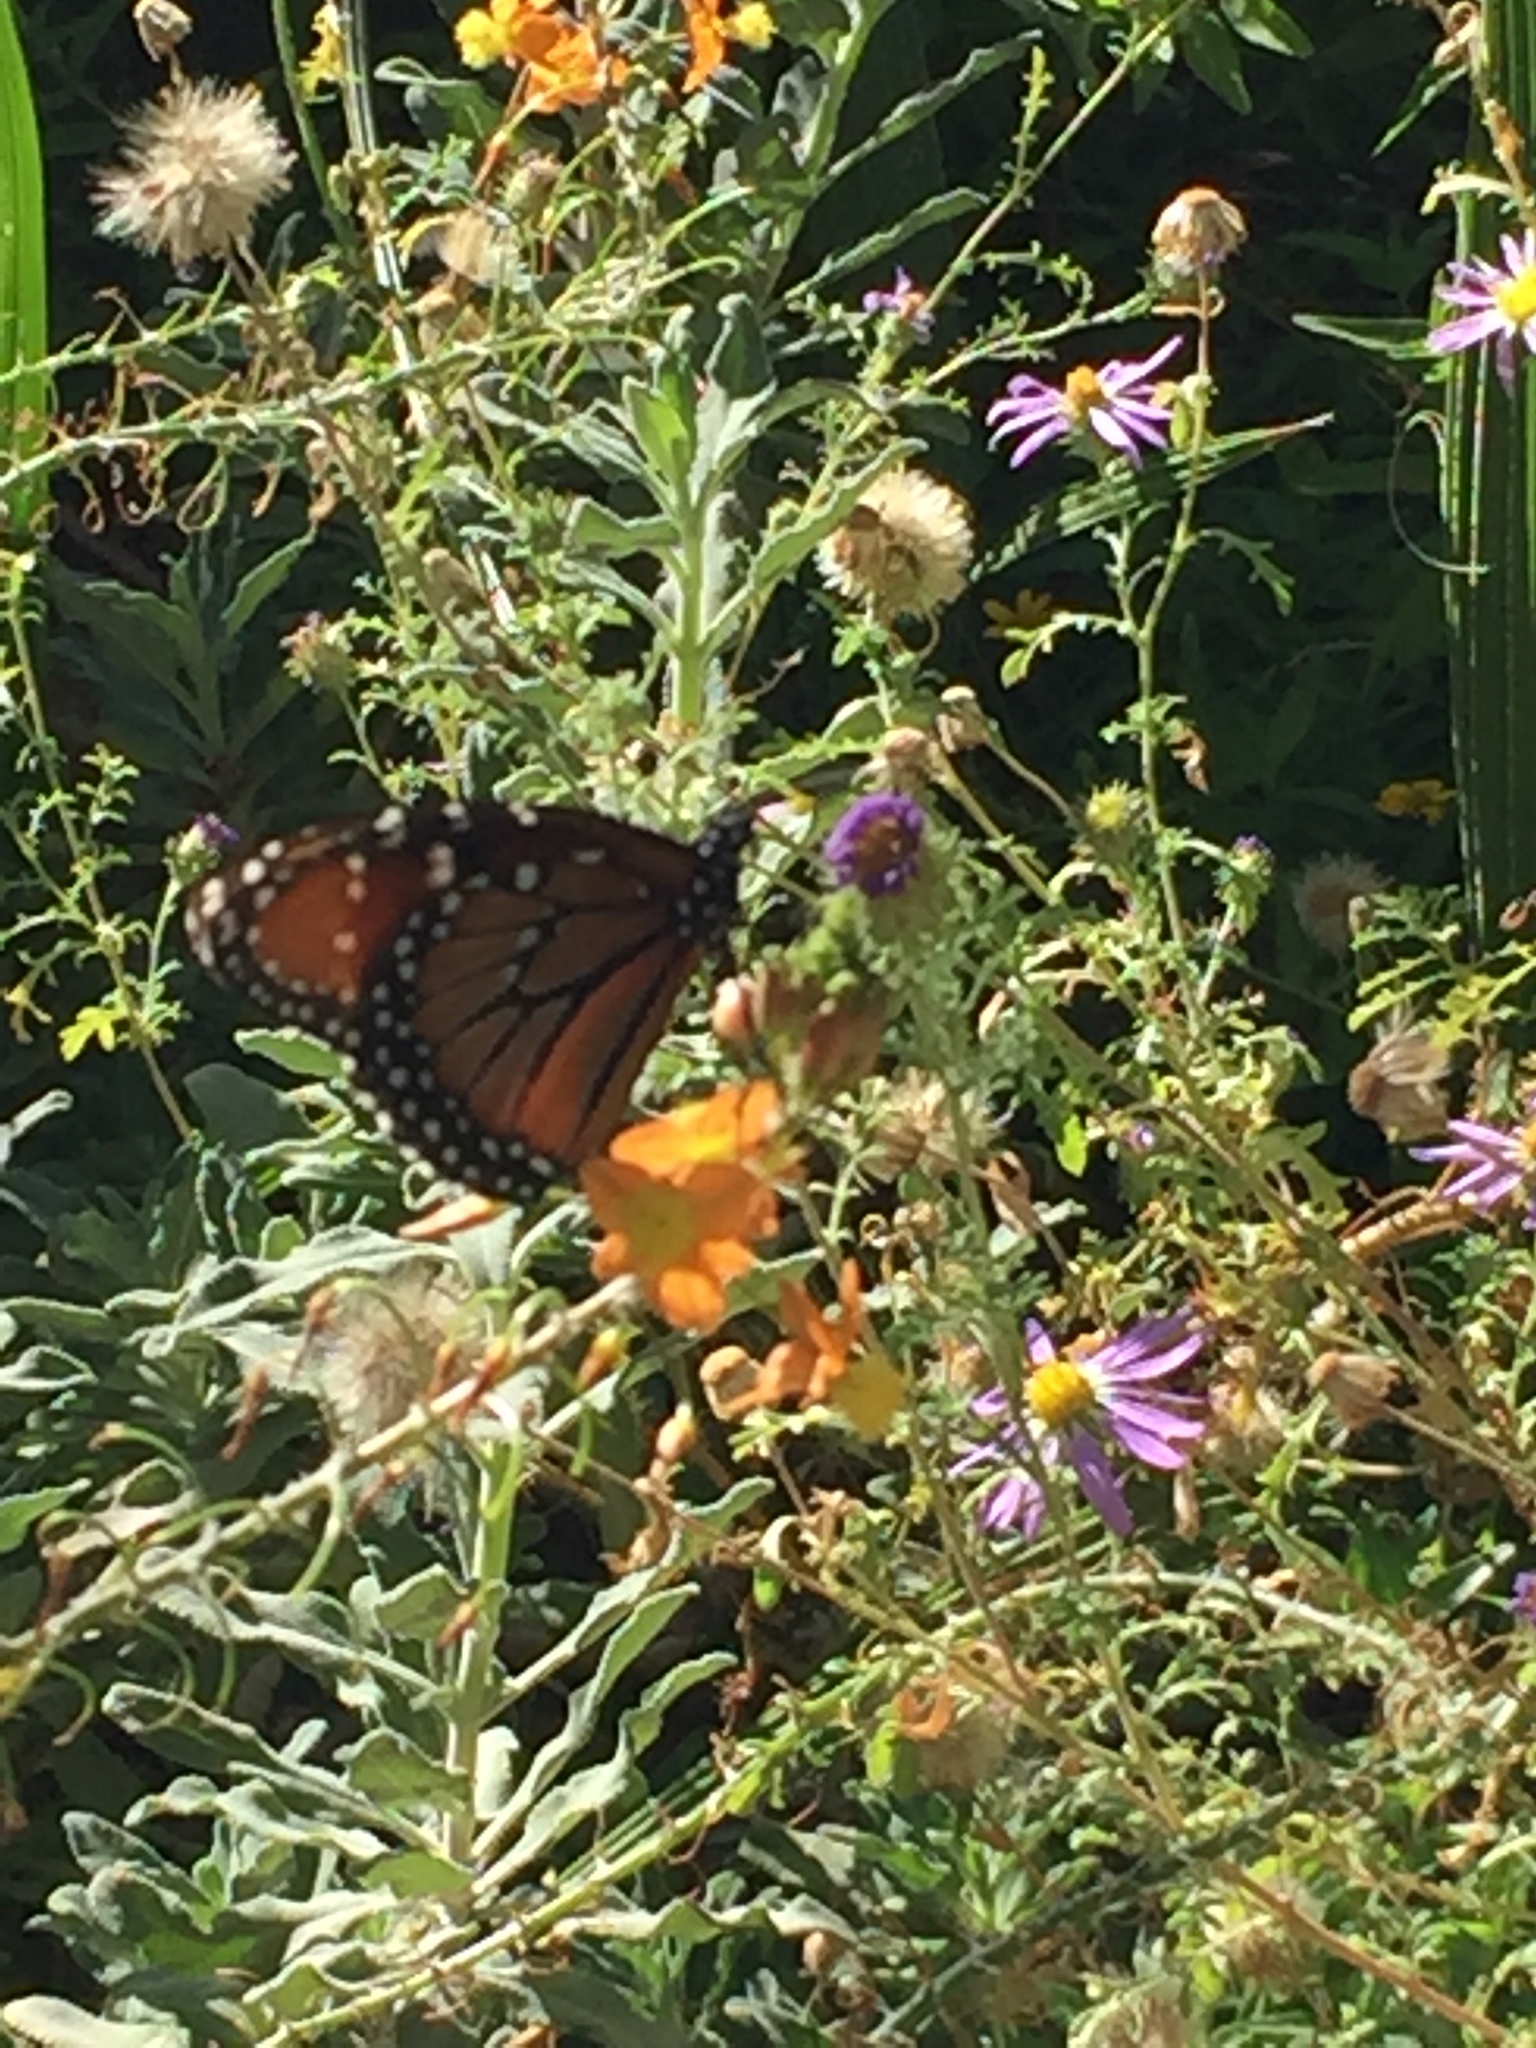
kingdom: Animalia
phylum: Arthropoda
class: Insecta
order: Lepidoptera
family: Nymphalidae
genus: Danaus
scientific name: Danaus gilippus
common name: Queen
